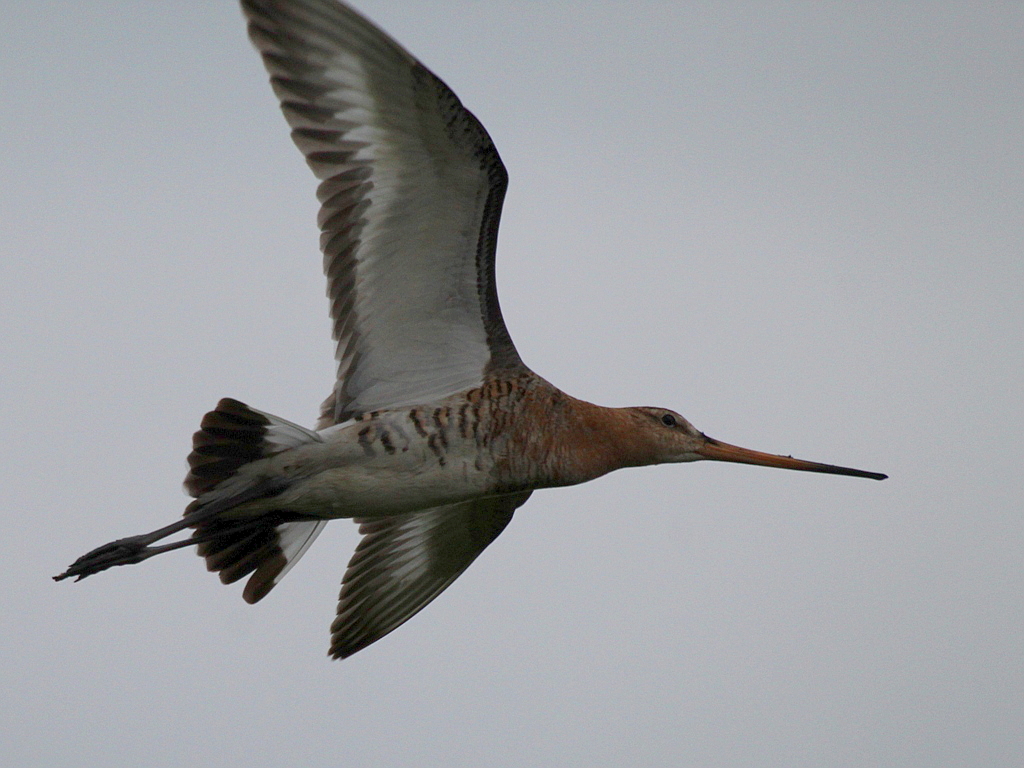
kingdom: Animalia
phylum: Chordata
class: Aves
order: Charadriiformes
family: Scolopacidae
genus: Limosa
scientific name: Limosa limosa
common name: Black-tailed godwit
